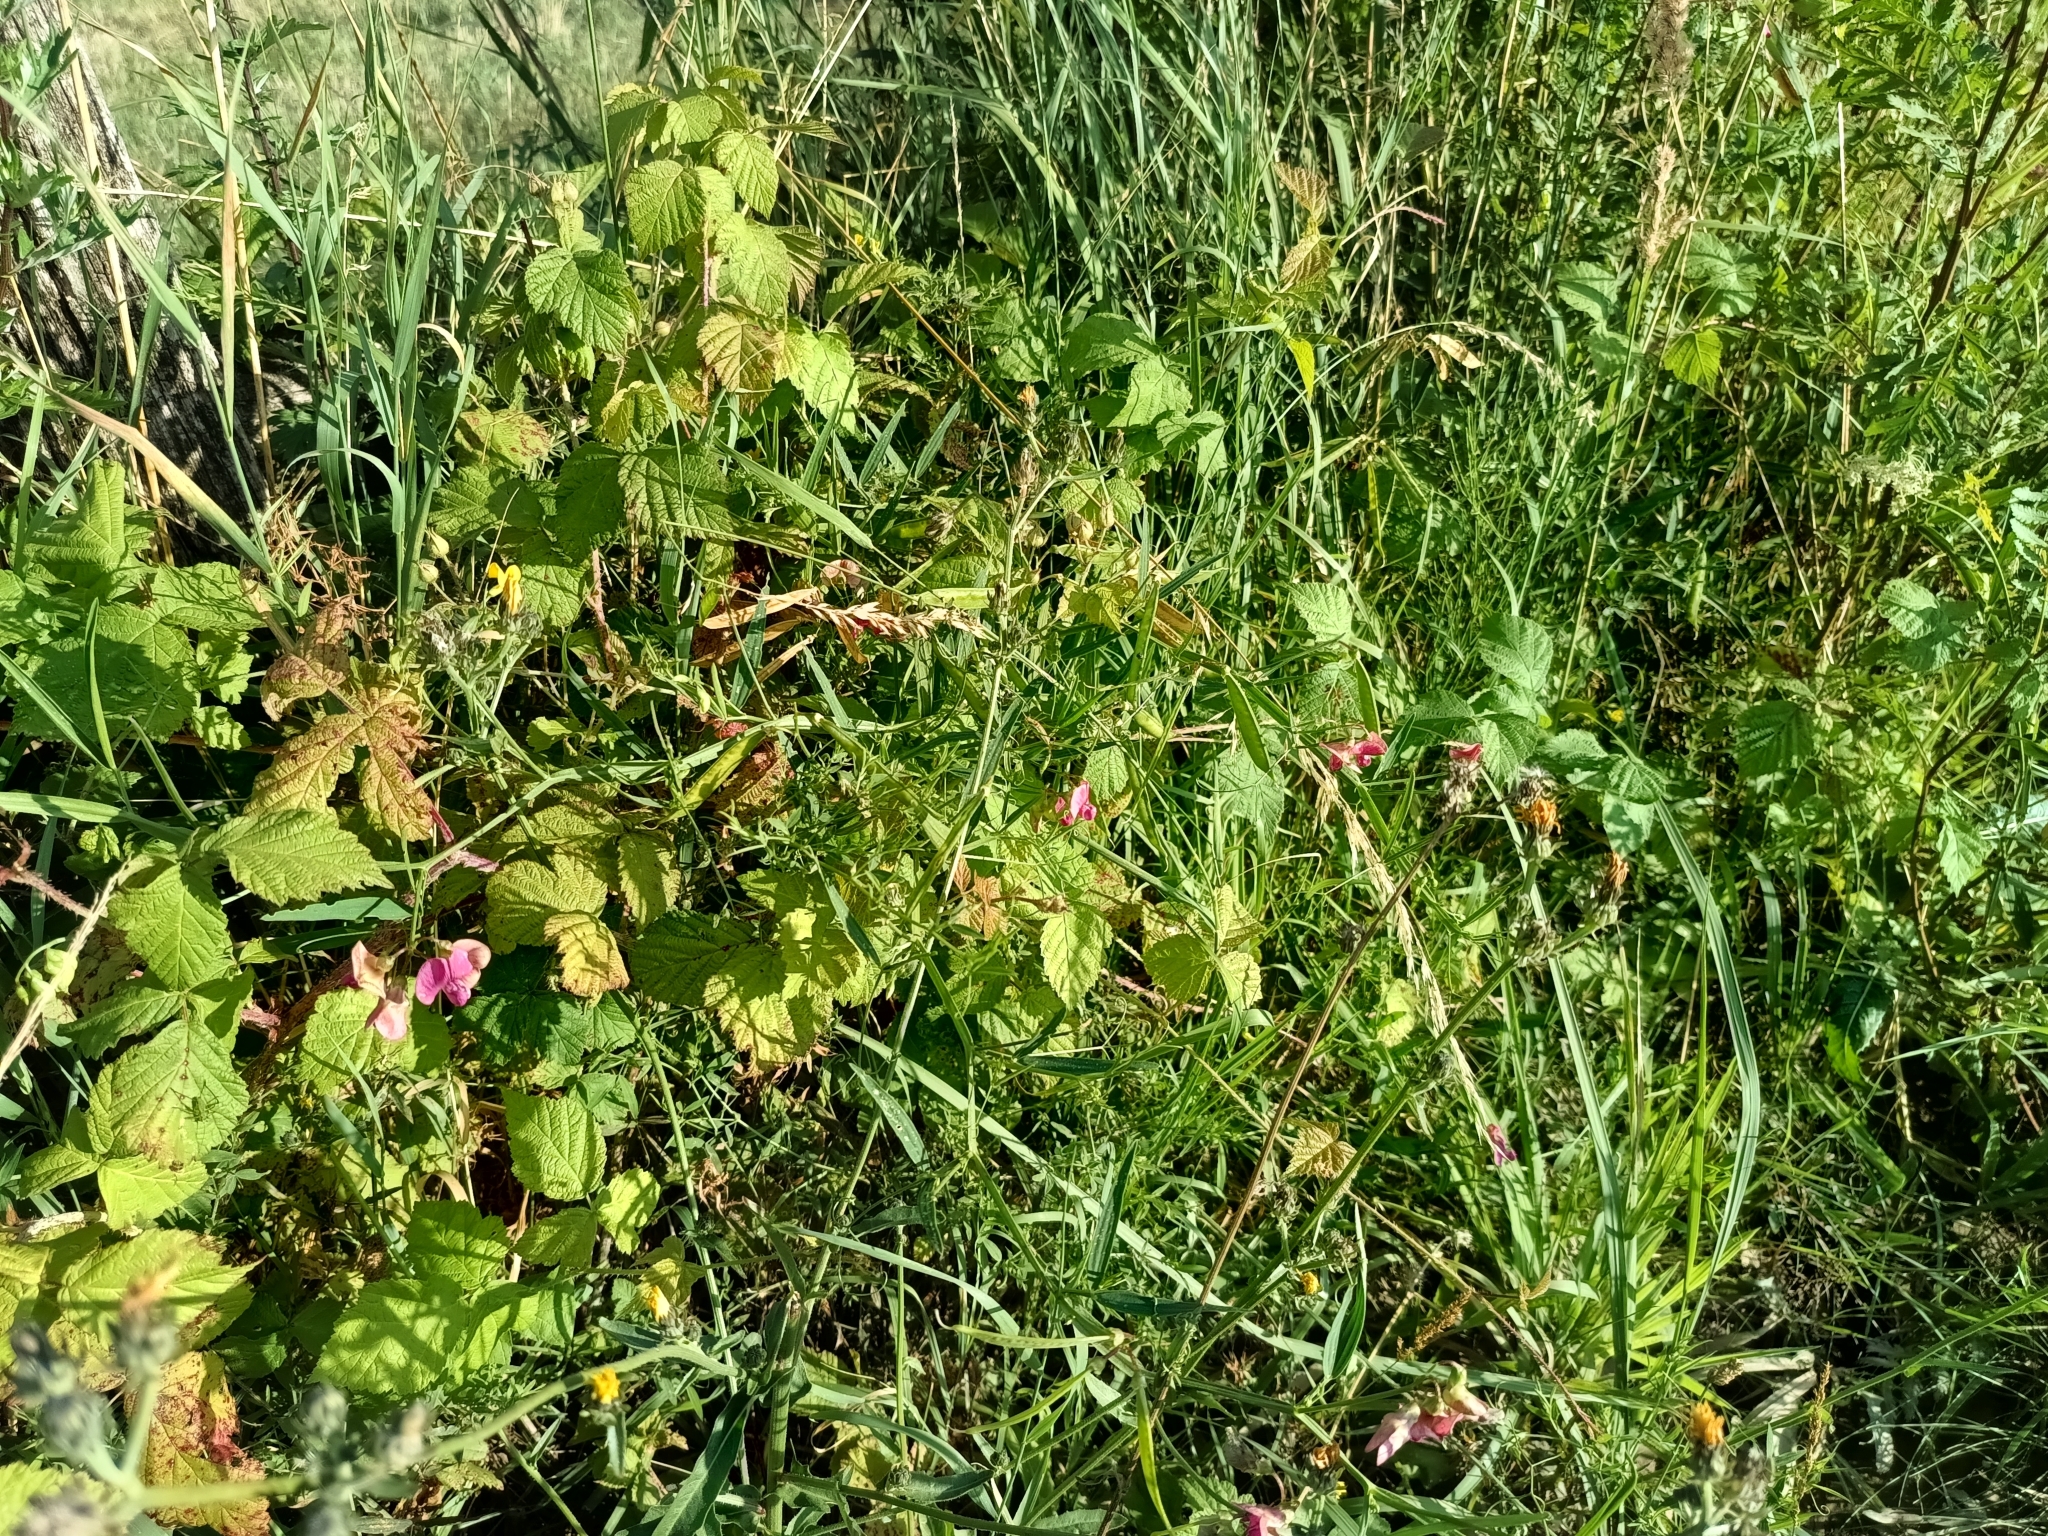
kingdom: Plantae
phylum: Tracheophyta
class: Magnoliopsida
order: Fabales
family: Fabaceae
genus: Lathyrus
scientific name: Lathyrus sylvestris
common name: Flat pea
